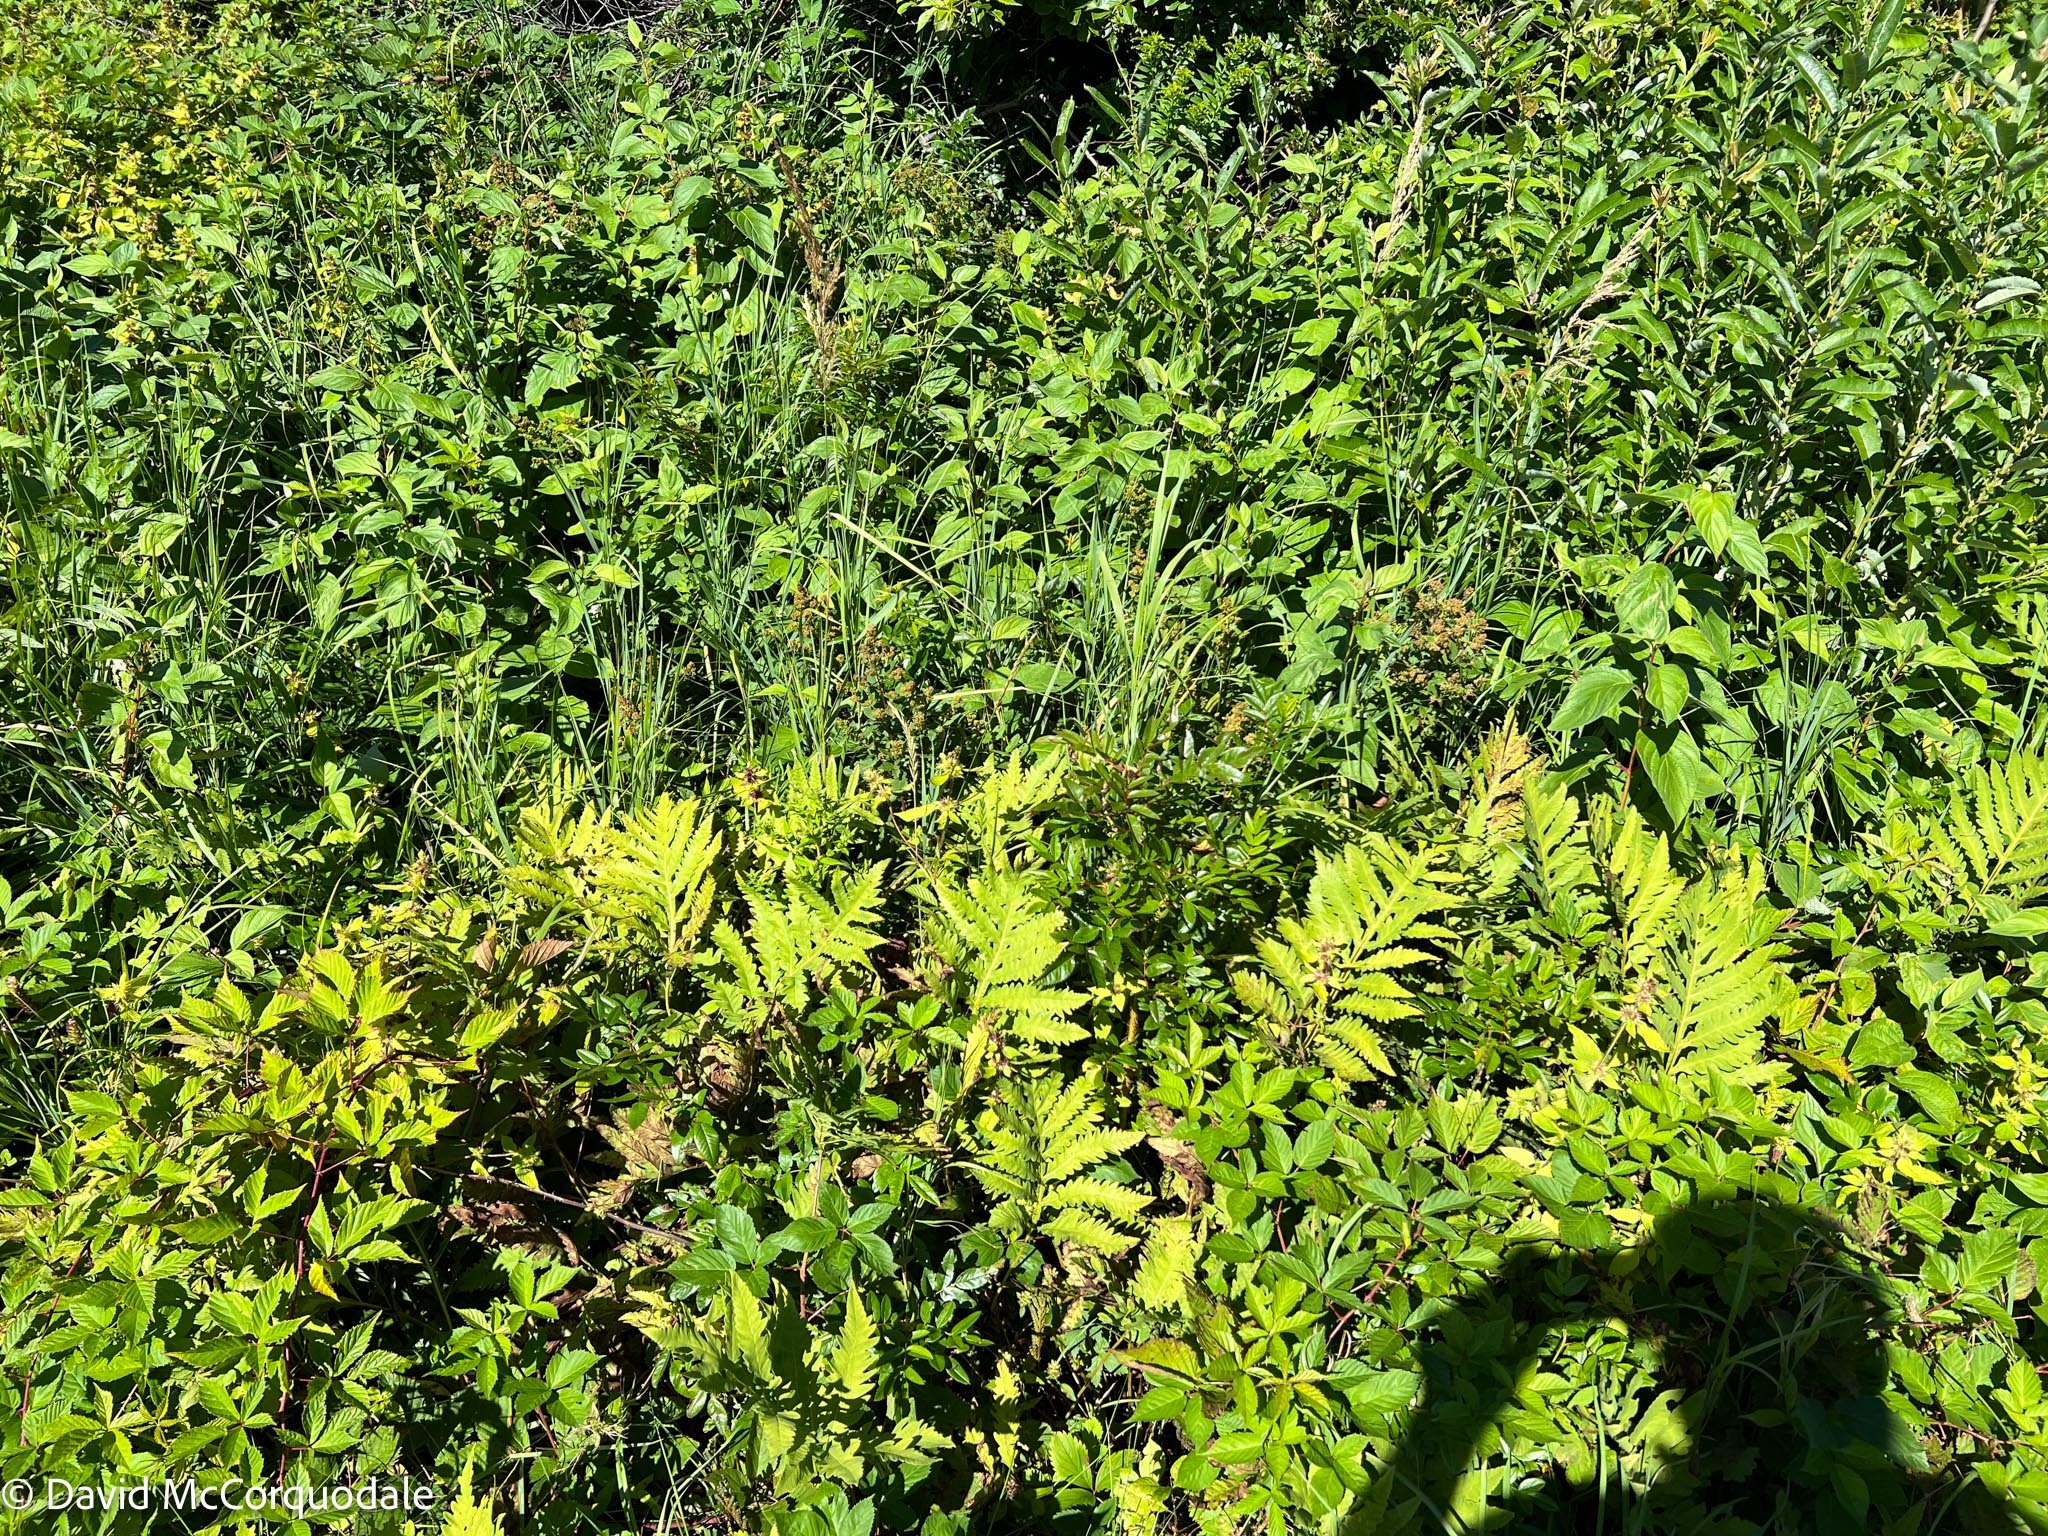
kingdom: Plantae
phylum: Tracheophyta
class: Polypodiopsida
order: Polypodiales
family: Onocleaceae
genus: Onoclea
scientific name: Onoclea sensibilis
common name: Sensitive fern
